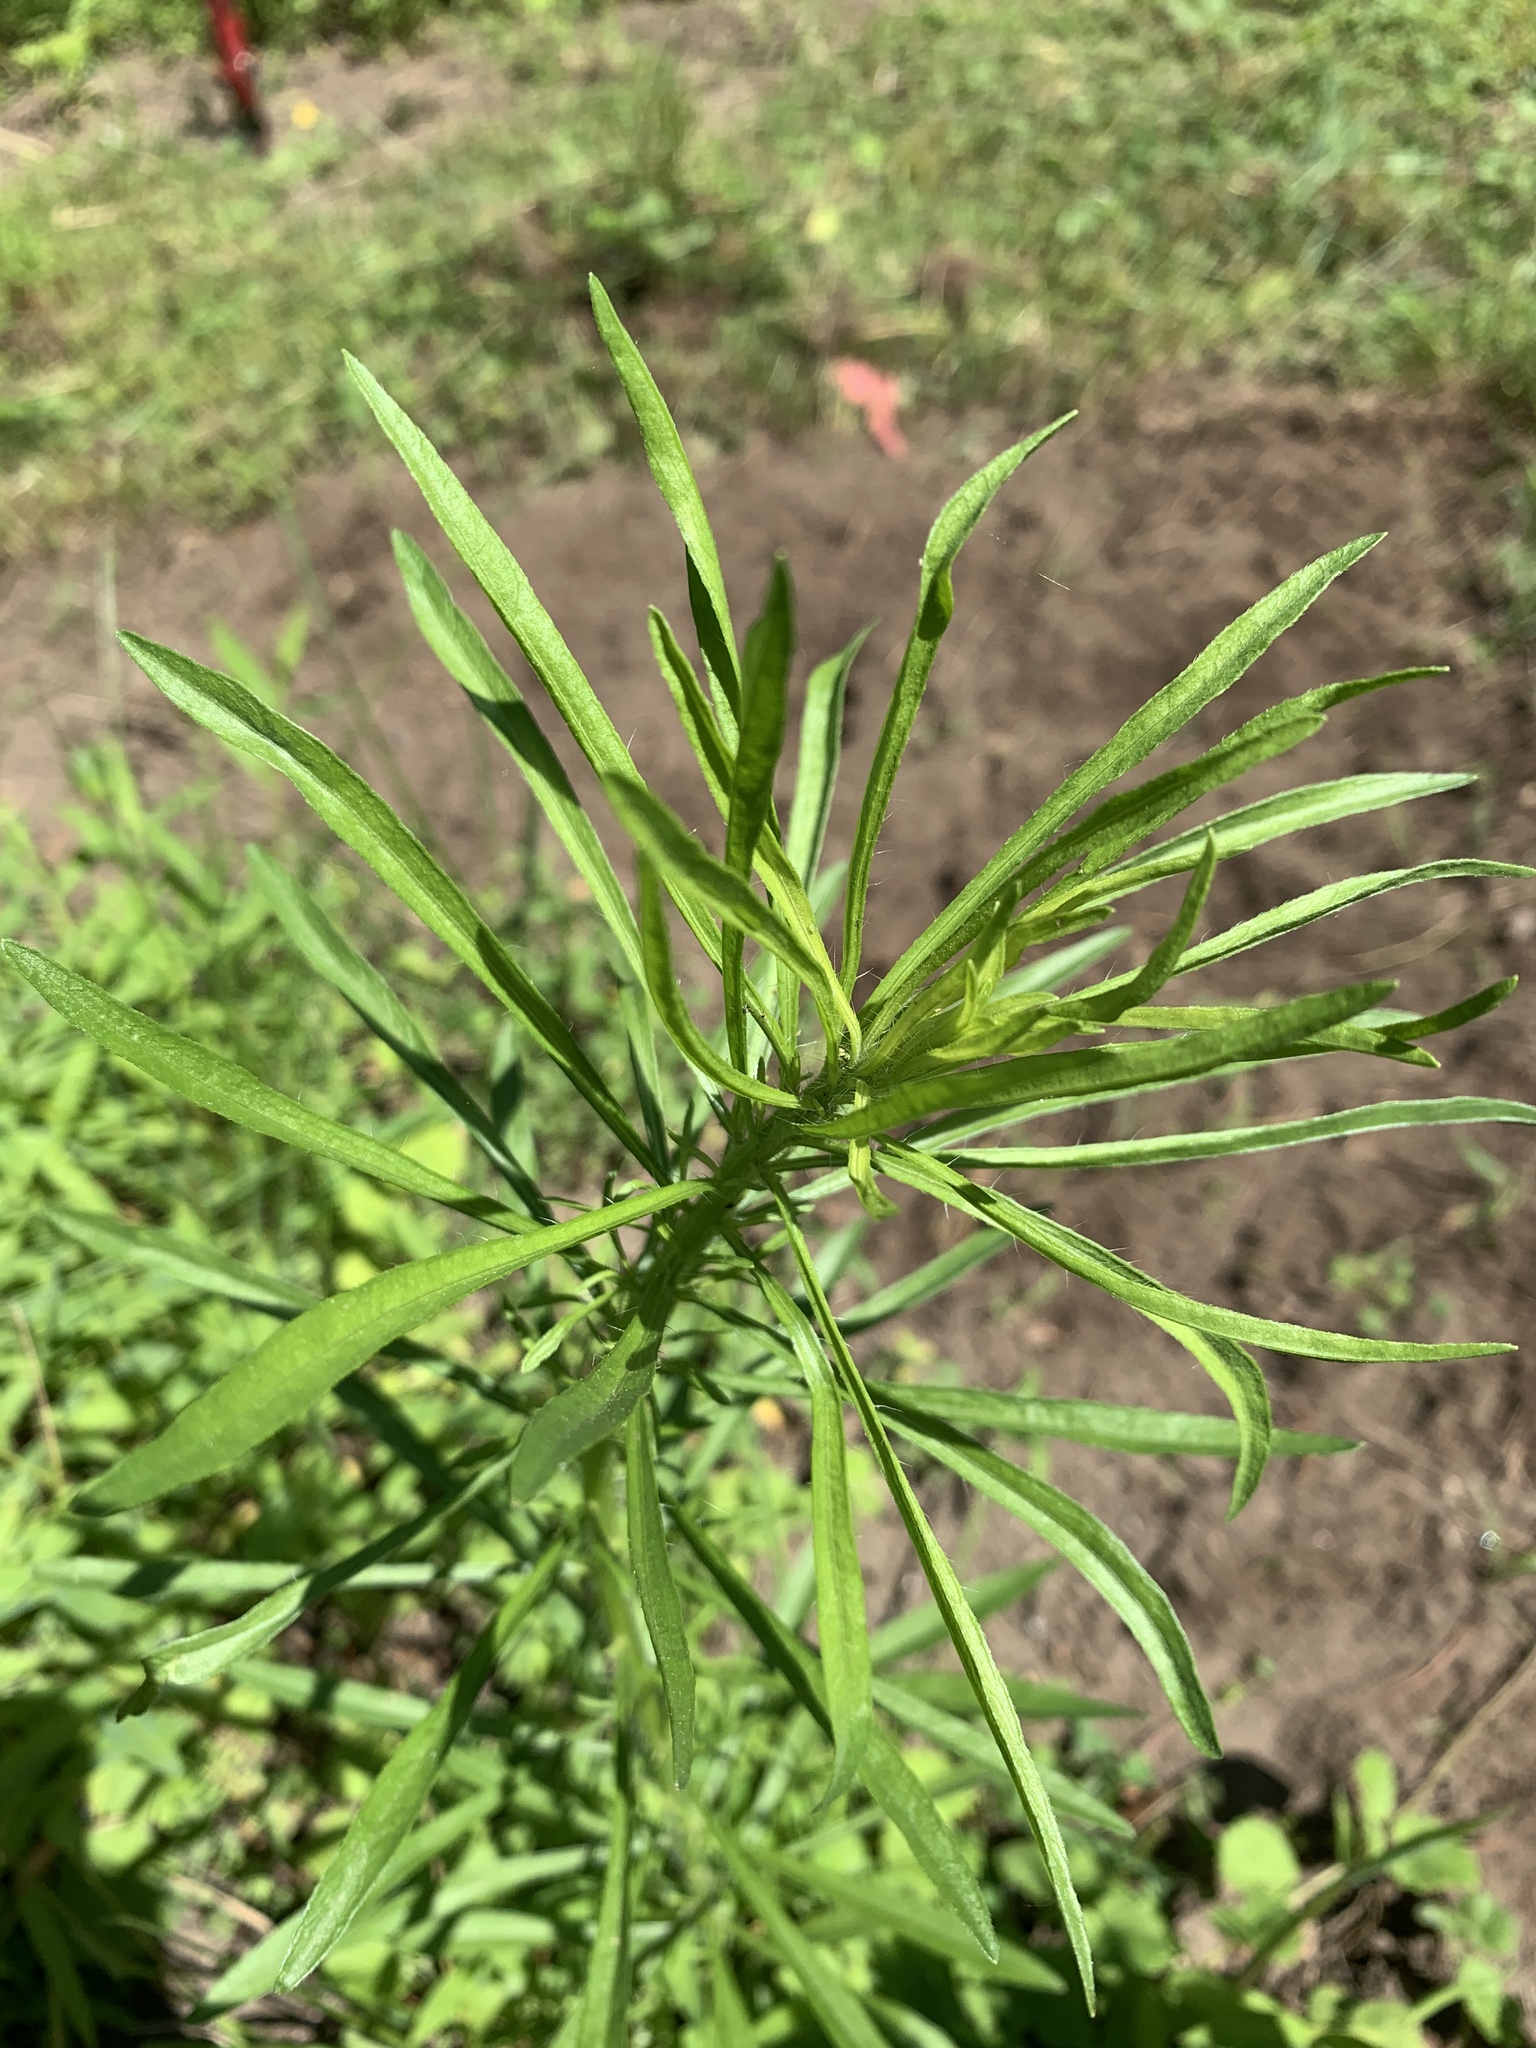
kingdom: Plantae
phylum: Tracheophyta
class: Magnoliopsida
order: Asterales
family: Asteraceae
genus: Erigeron
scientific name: Erigeron canadensis
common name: Canadian fleabane
